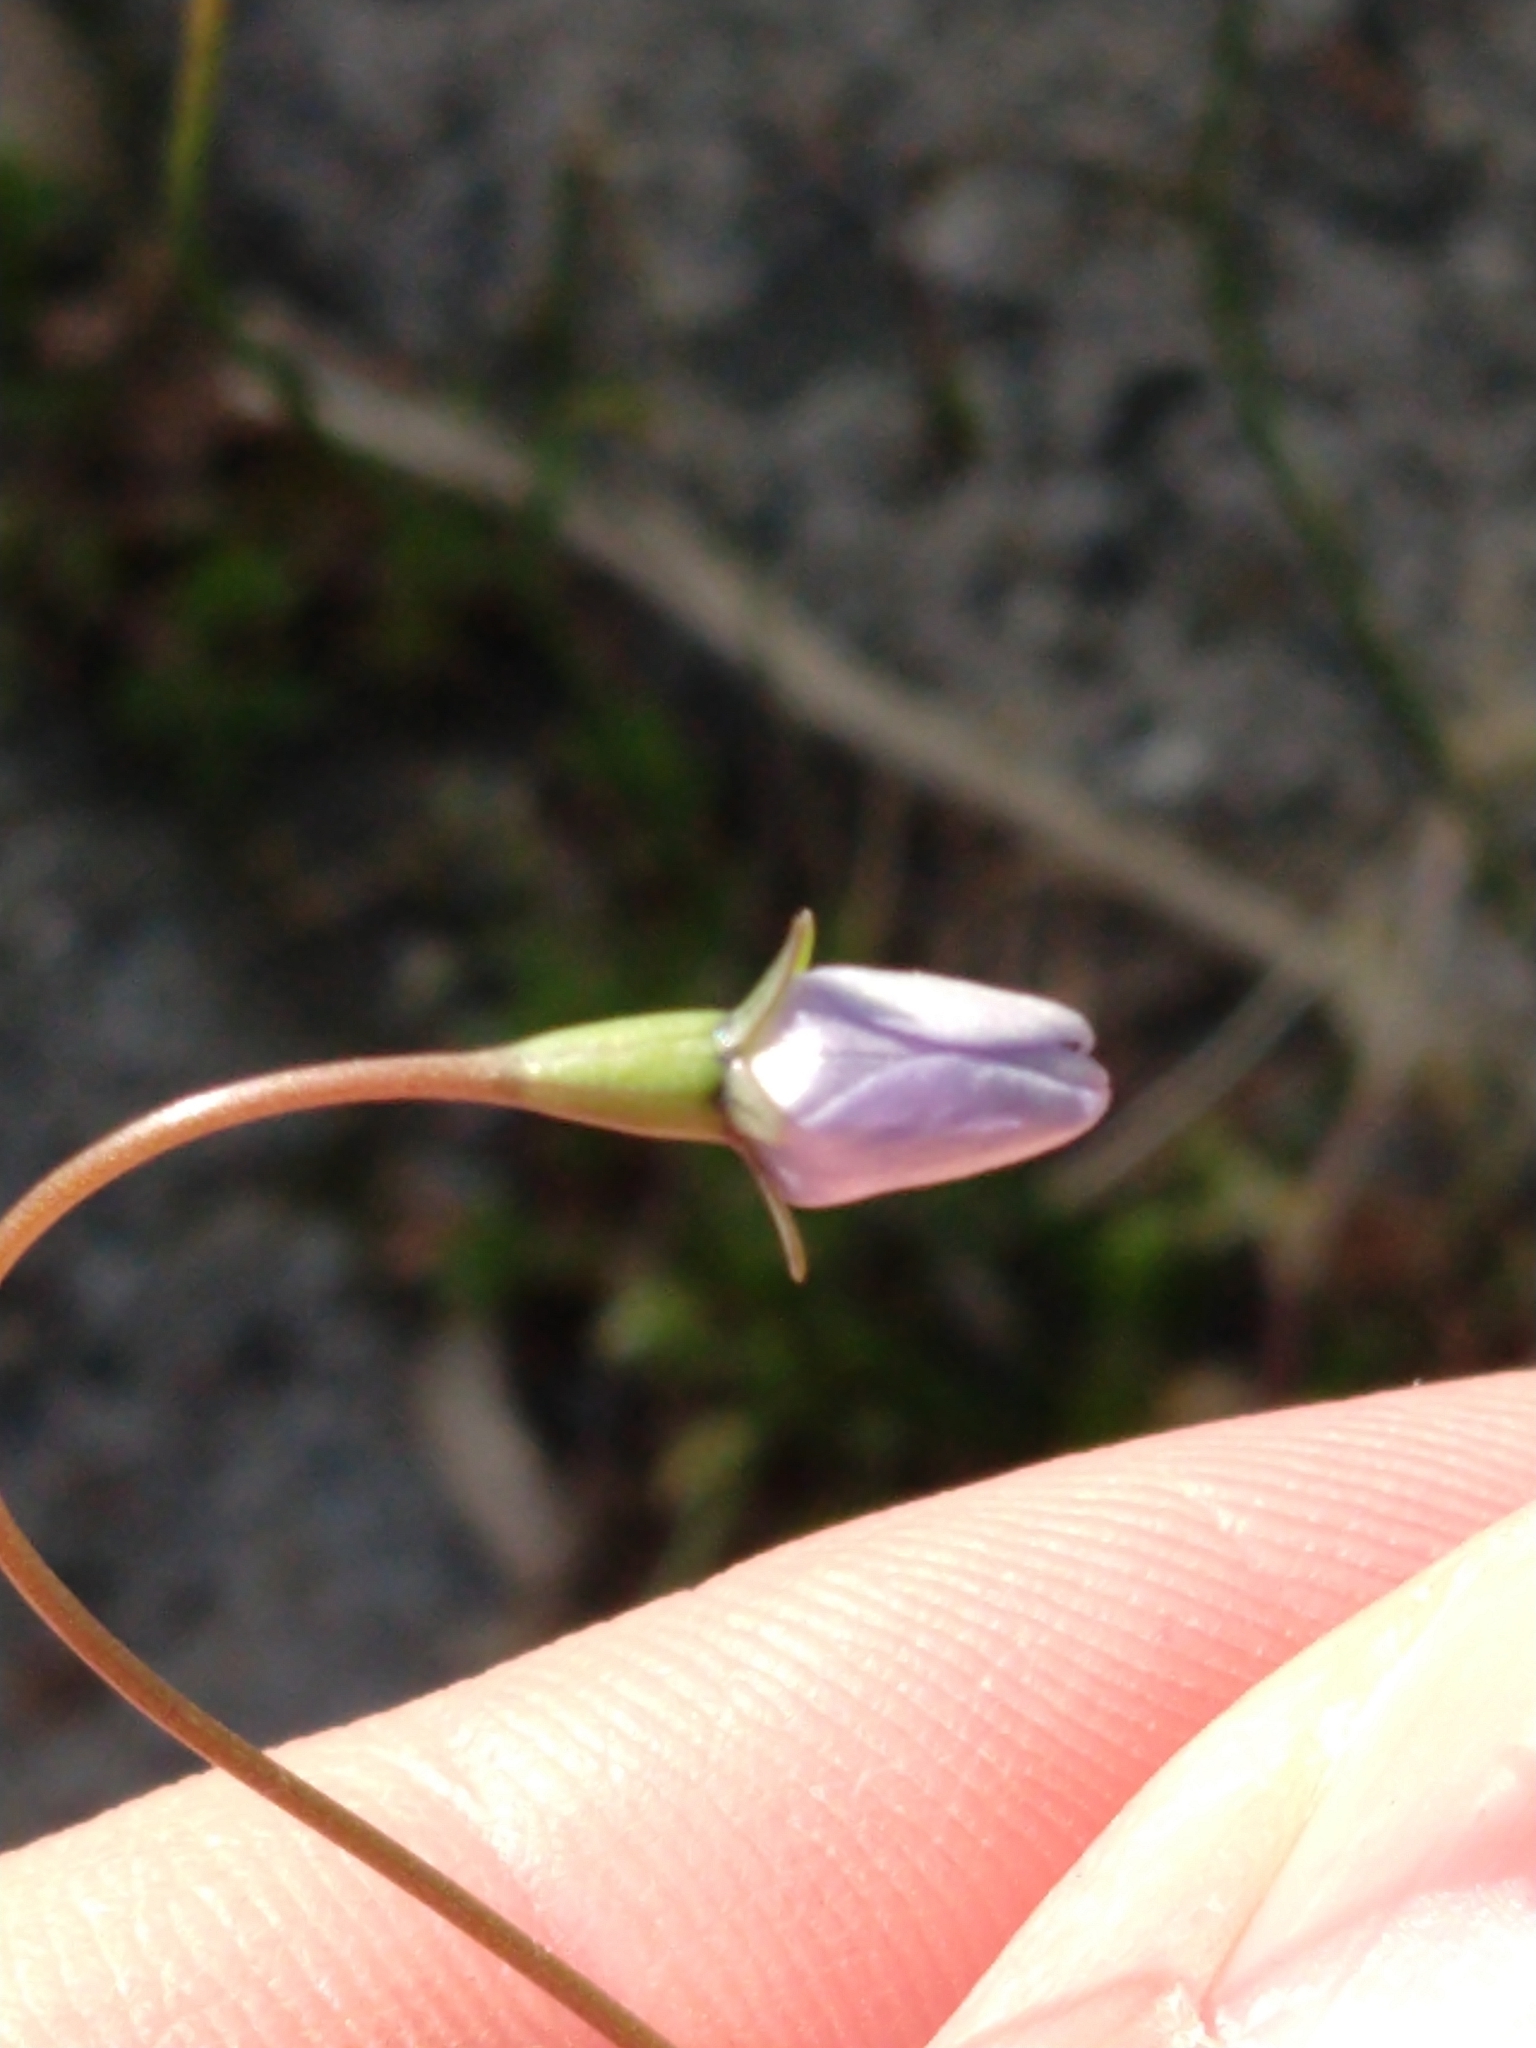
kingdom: Plantae
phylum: Tracheophyta
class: Magnoliopsida
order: Asterales
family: Campanulaceae
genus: Wahlenbergia
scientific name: Wahlenbergia marginata
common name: Southern rockbell
